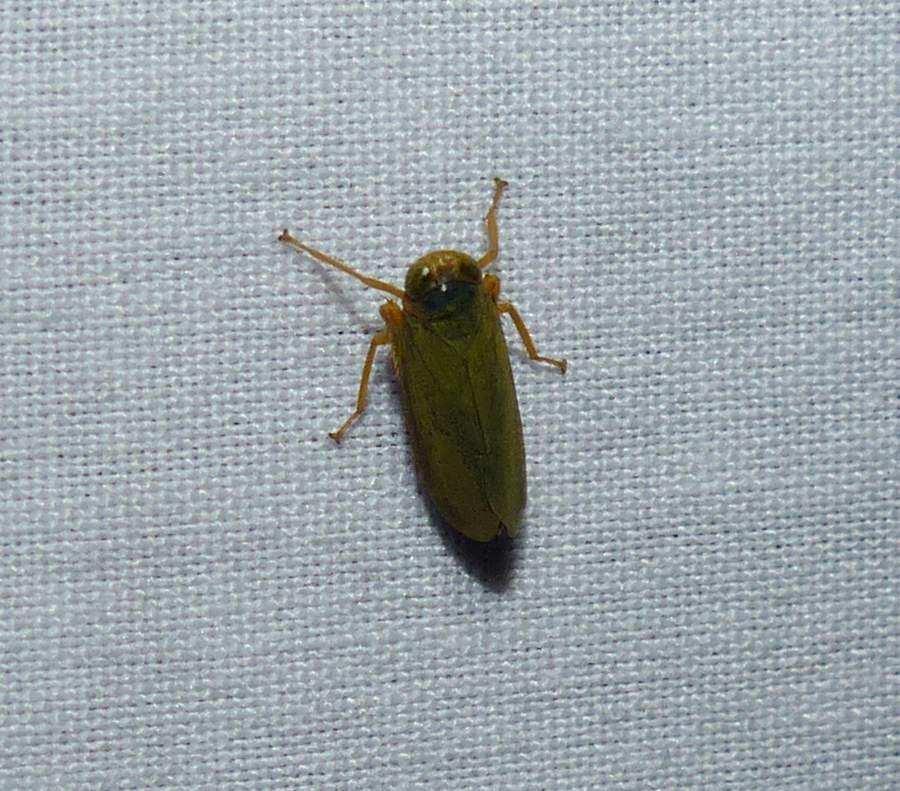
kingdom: Animalia
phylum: Arthropoda
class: Insecta
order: Hemiptera
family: Cicadellidae
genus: Jikradia
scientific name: Jikradia olitoria
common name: Coppery leafhopper
